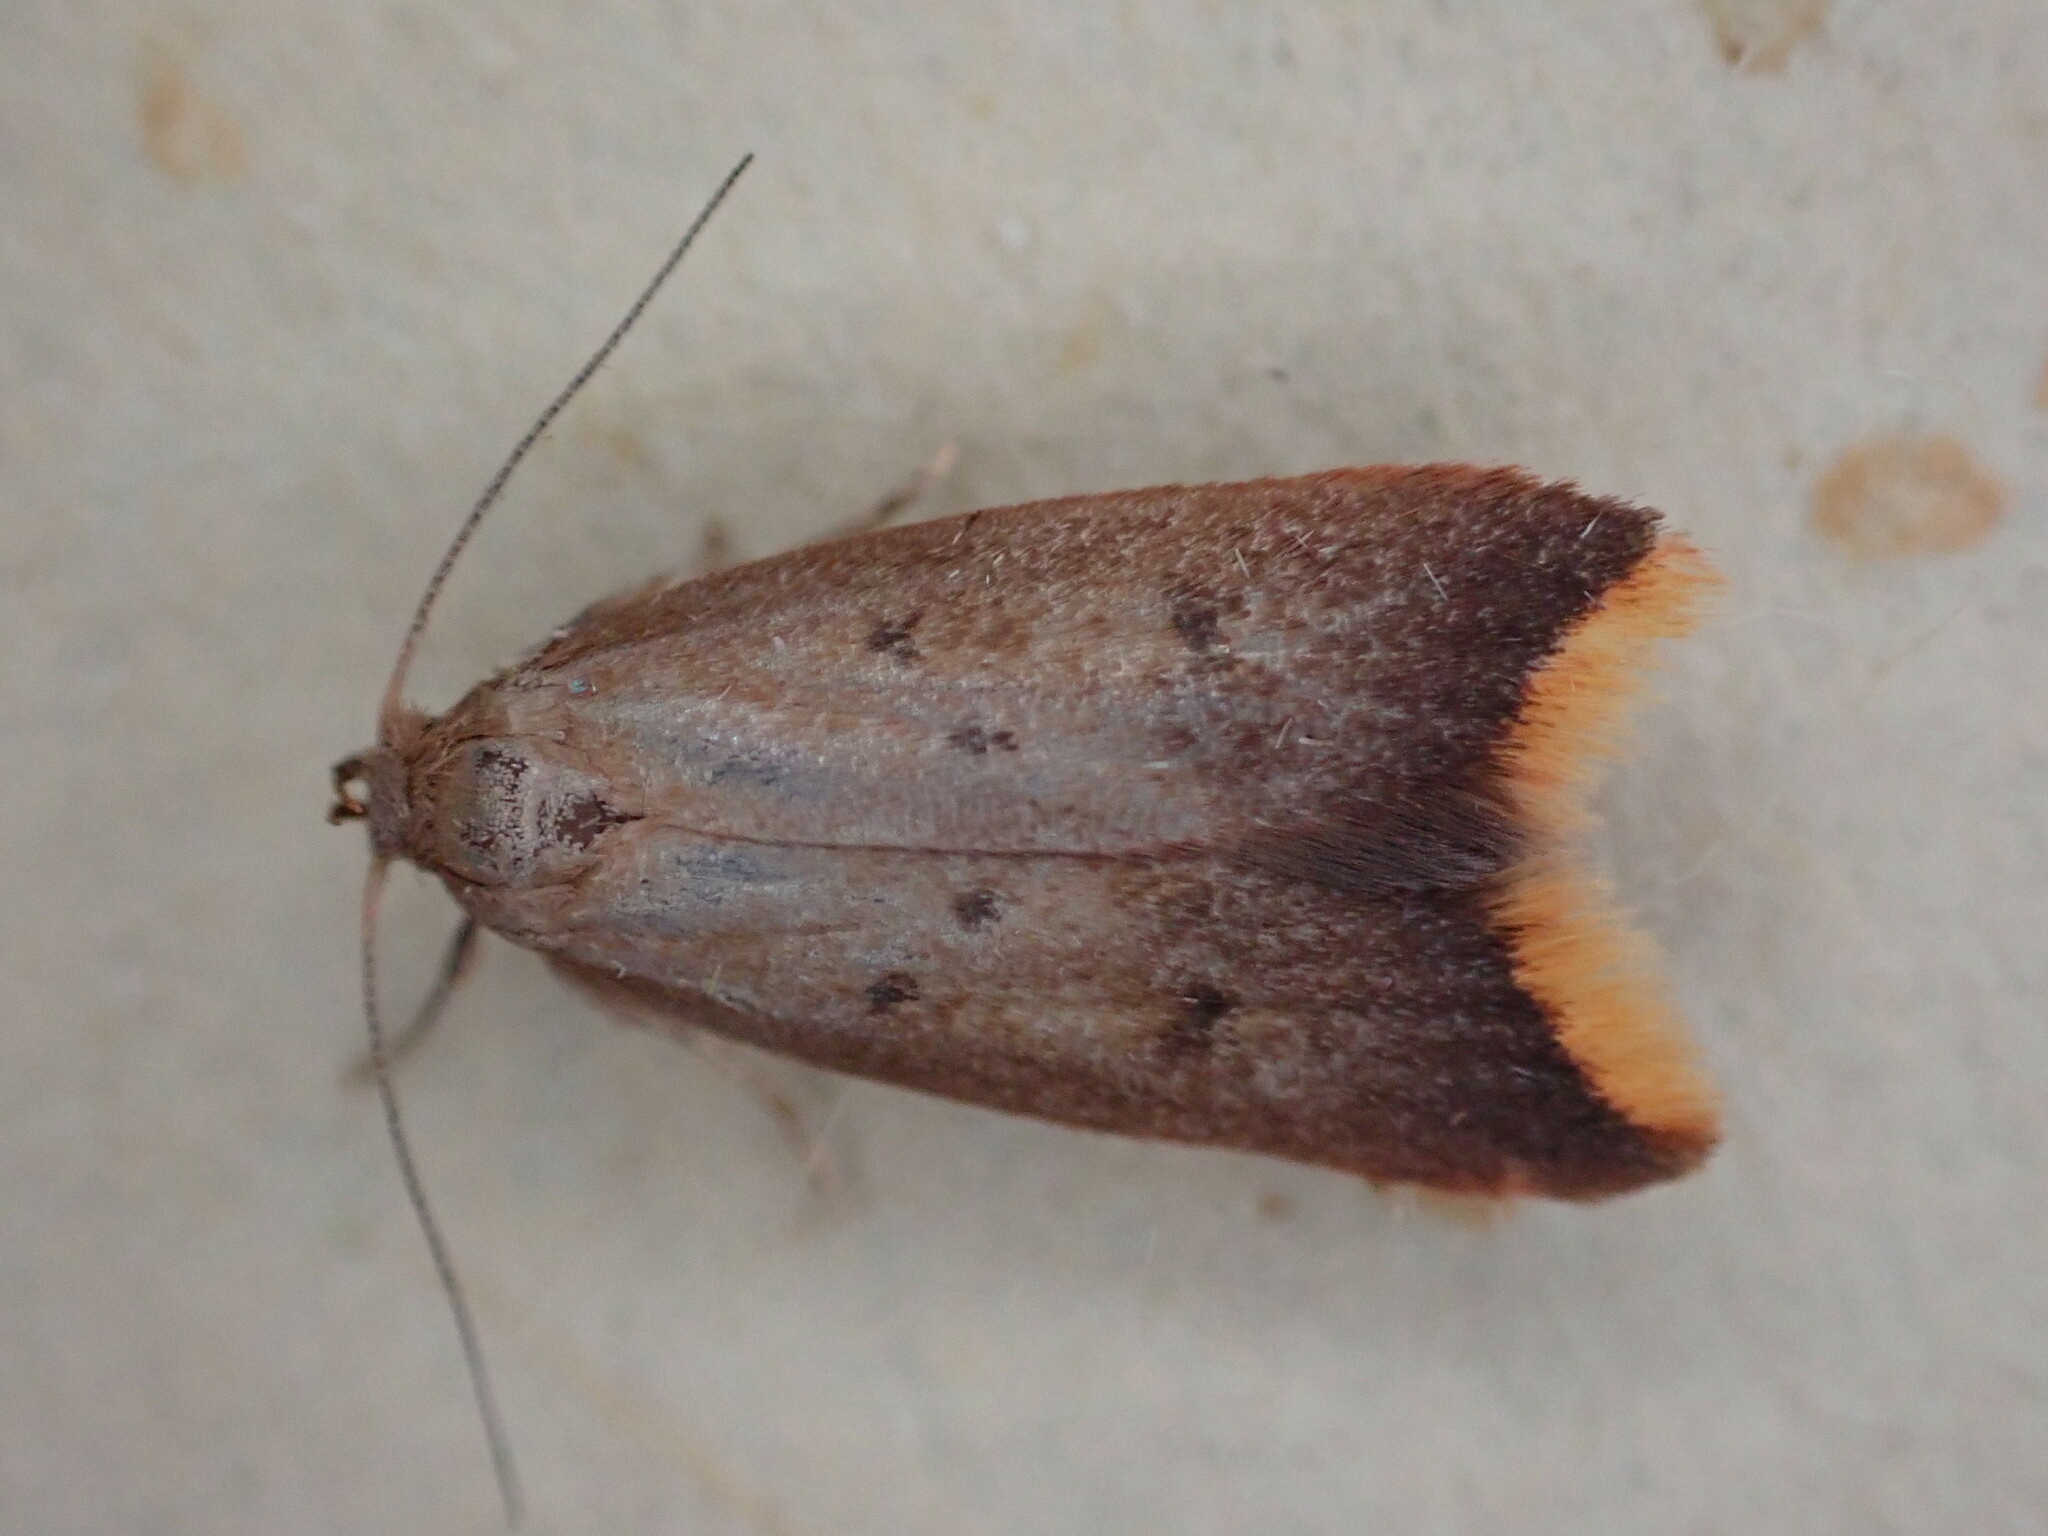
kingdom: Animalia
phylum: Arthropoda
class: Insecta
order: Lepidoptera
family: Oecophoridae
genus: Tachystola
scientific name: Tachystola acroxantha
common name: Ruddy streak
